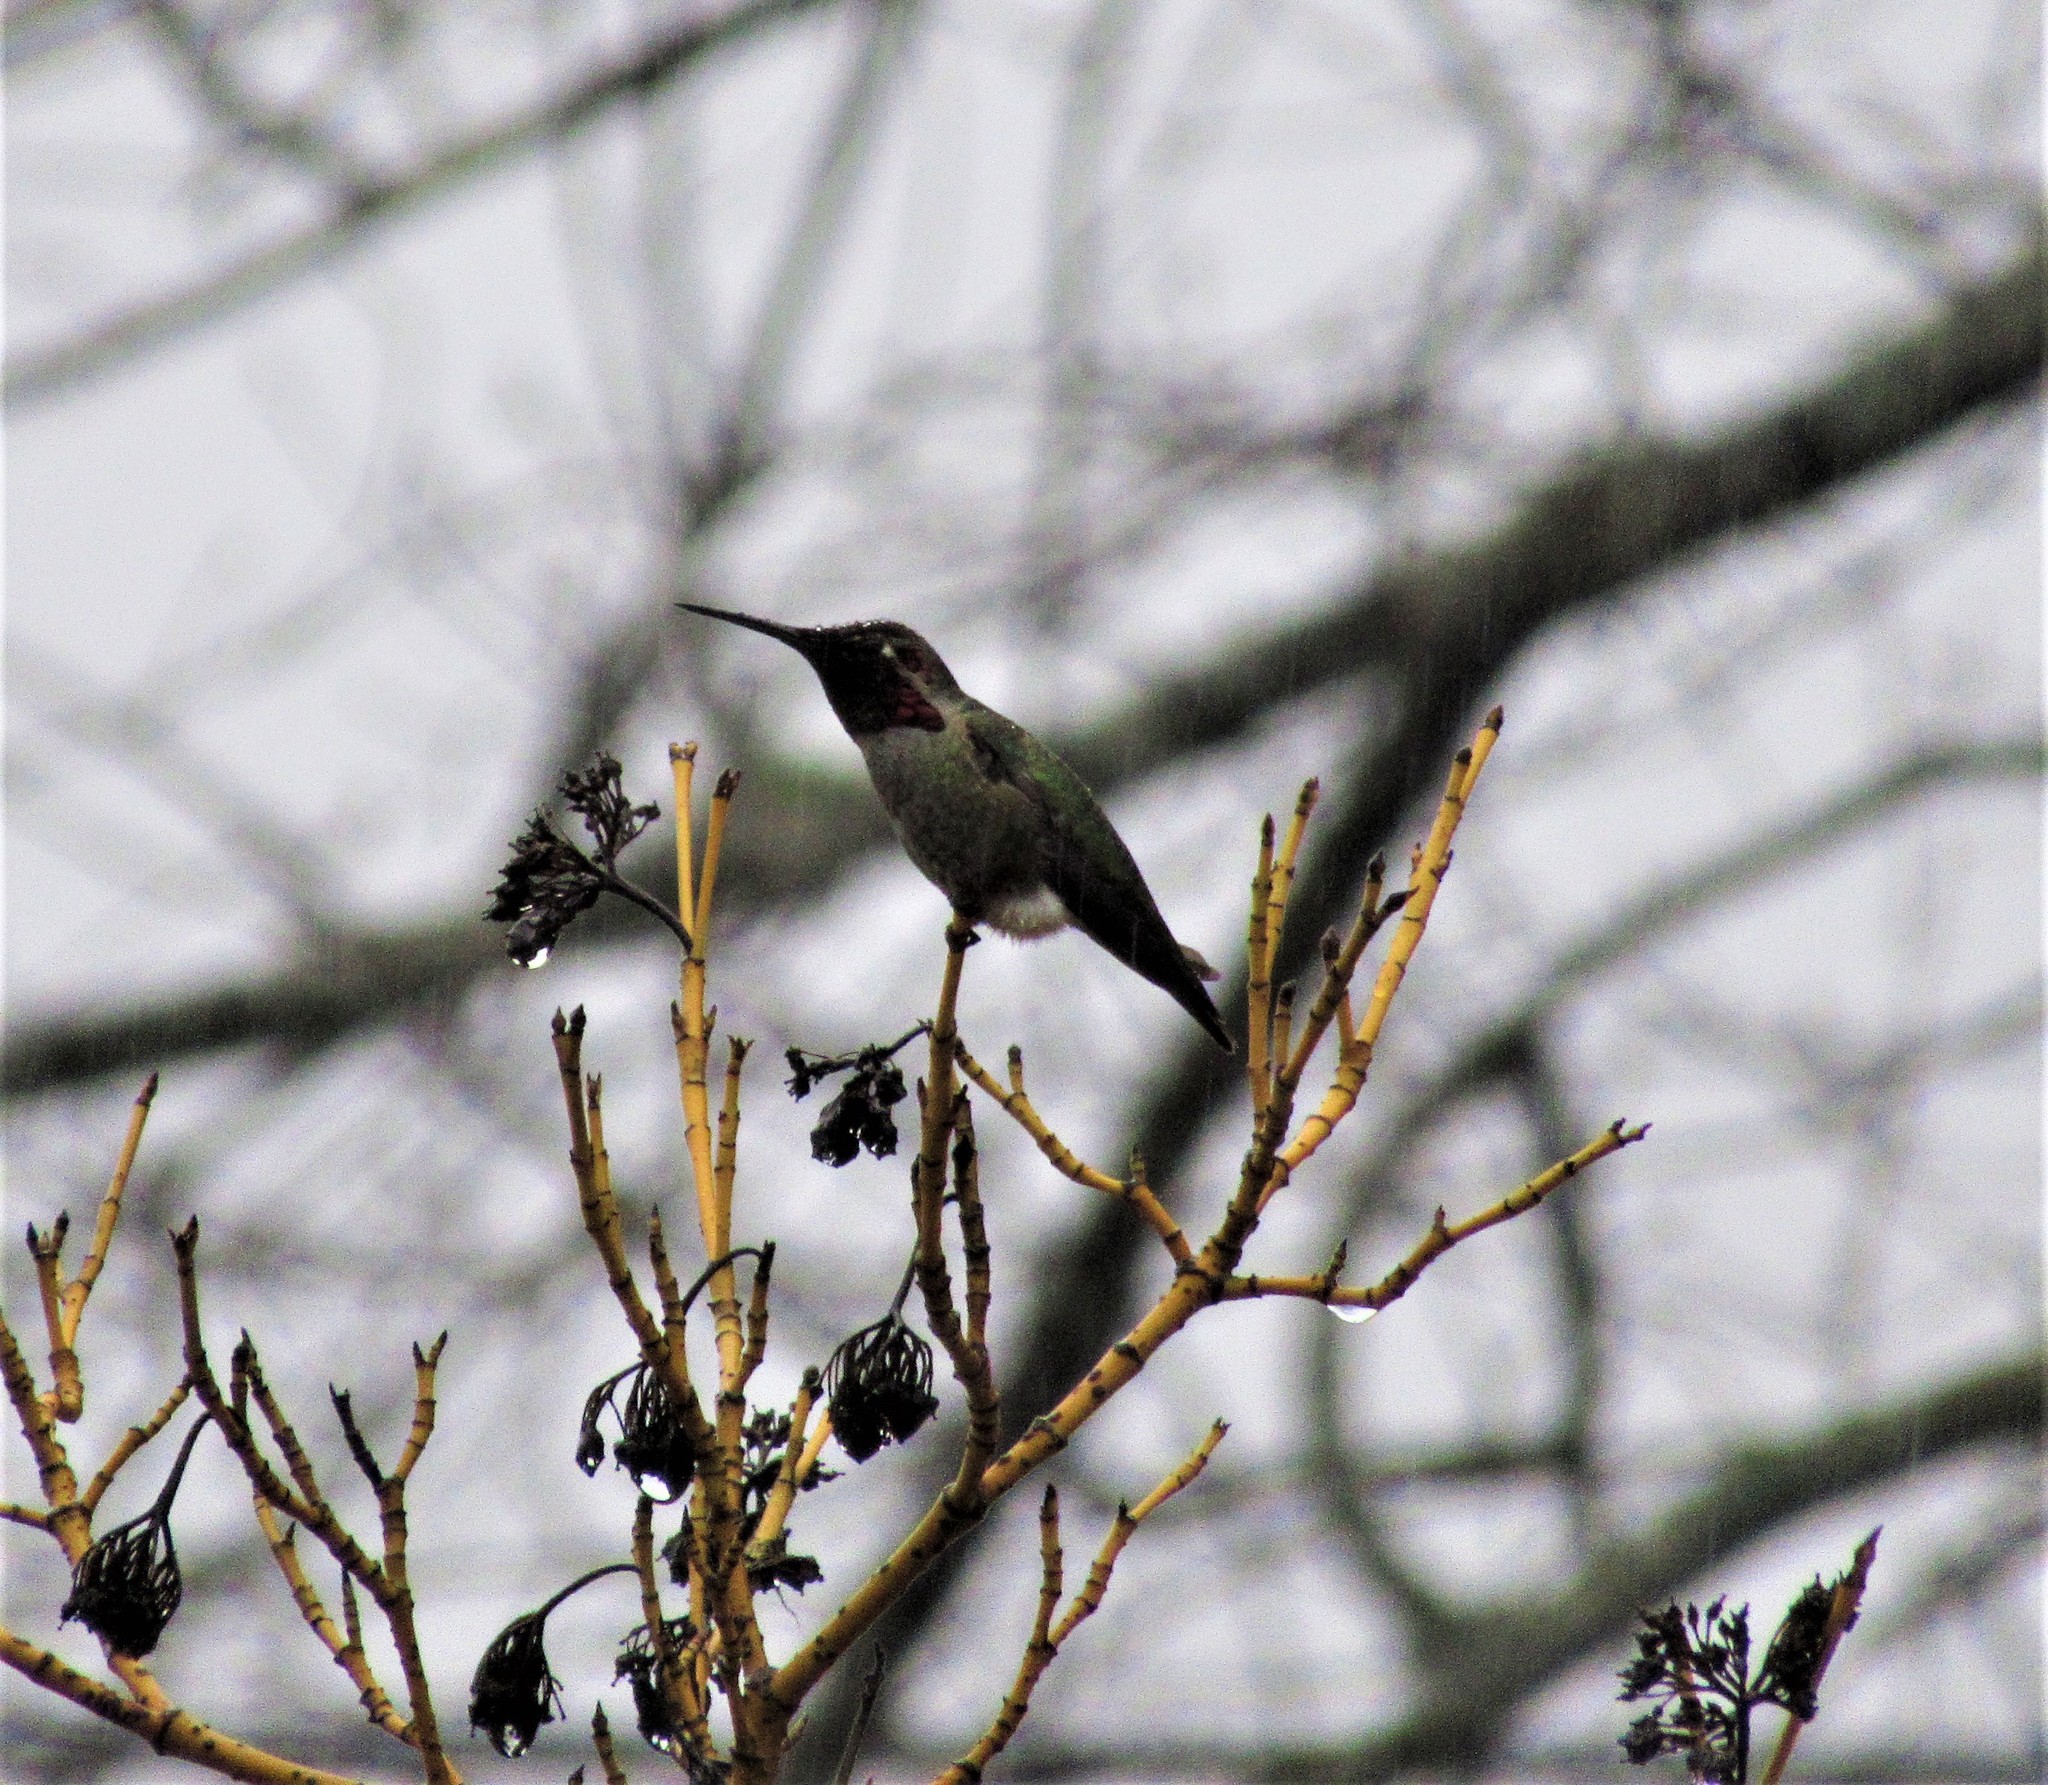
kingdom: Animalia
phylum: Chordata
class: Aves
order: Apodiformes
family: Trochilidae
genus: Calypte
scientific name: Calypte anna
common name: Anna's hummingbird
